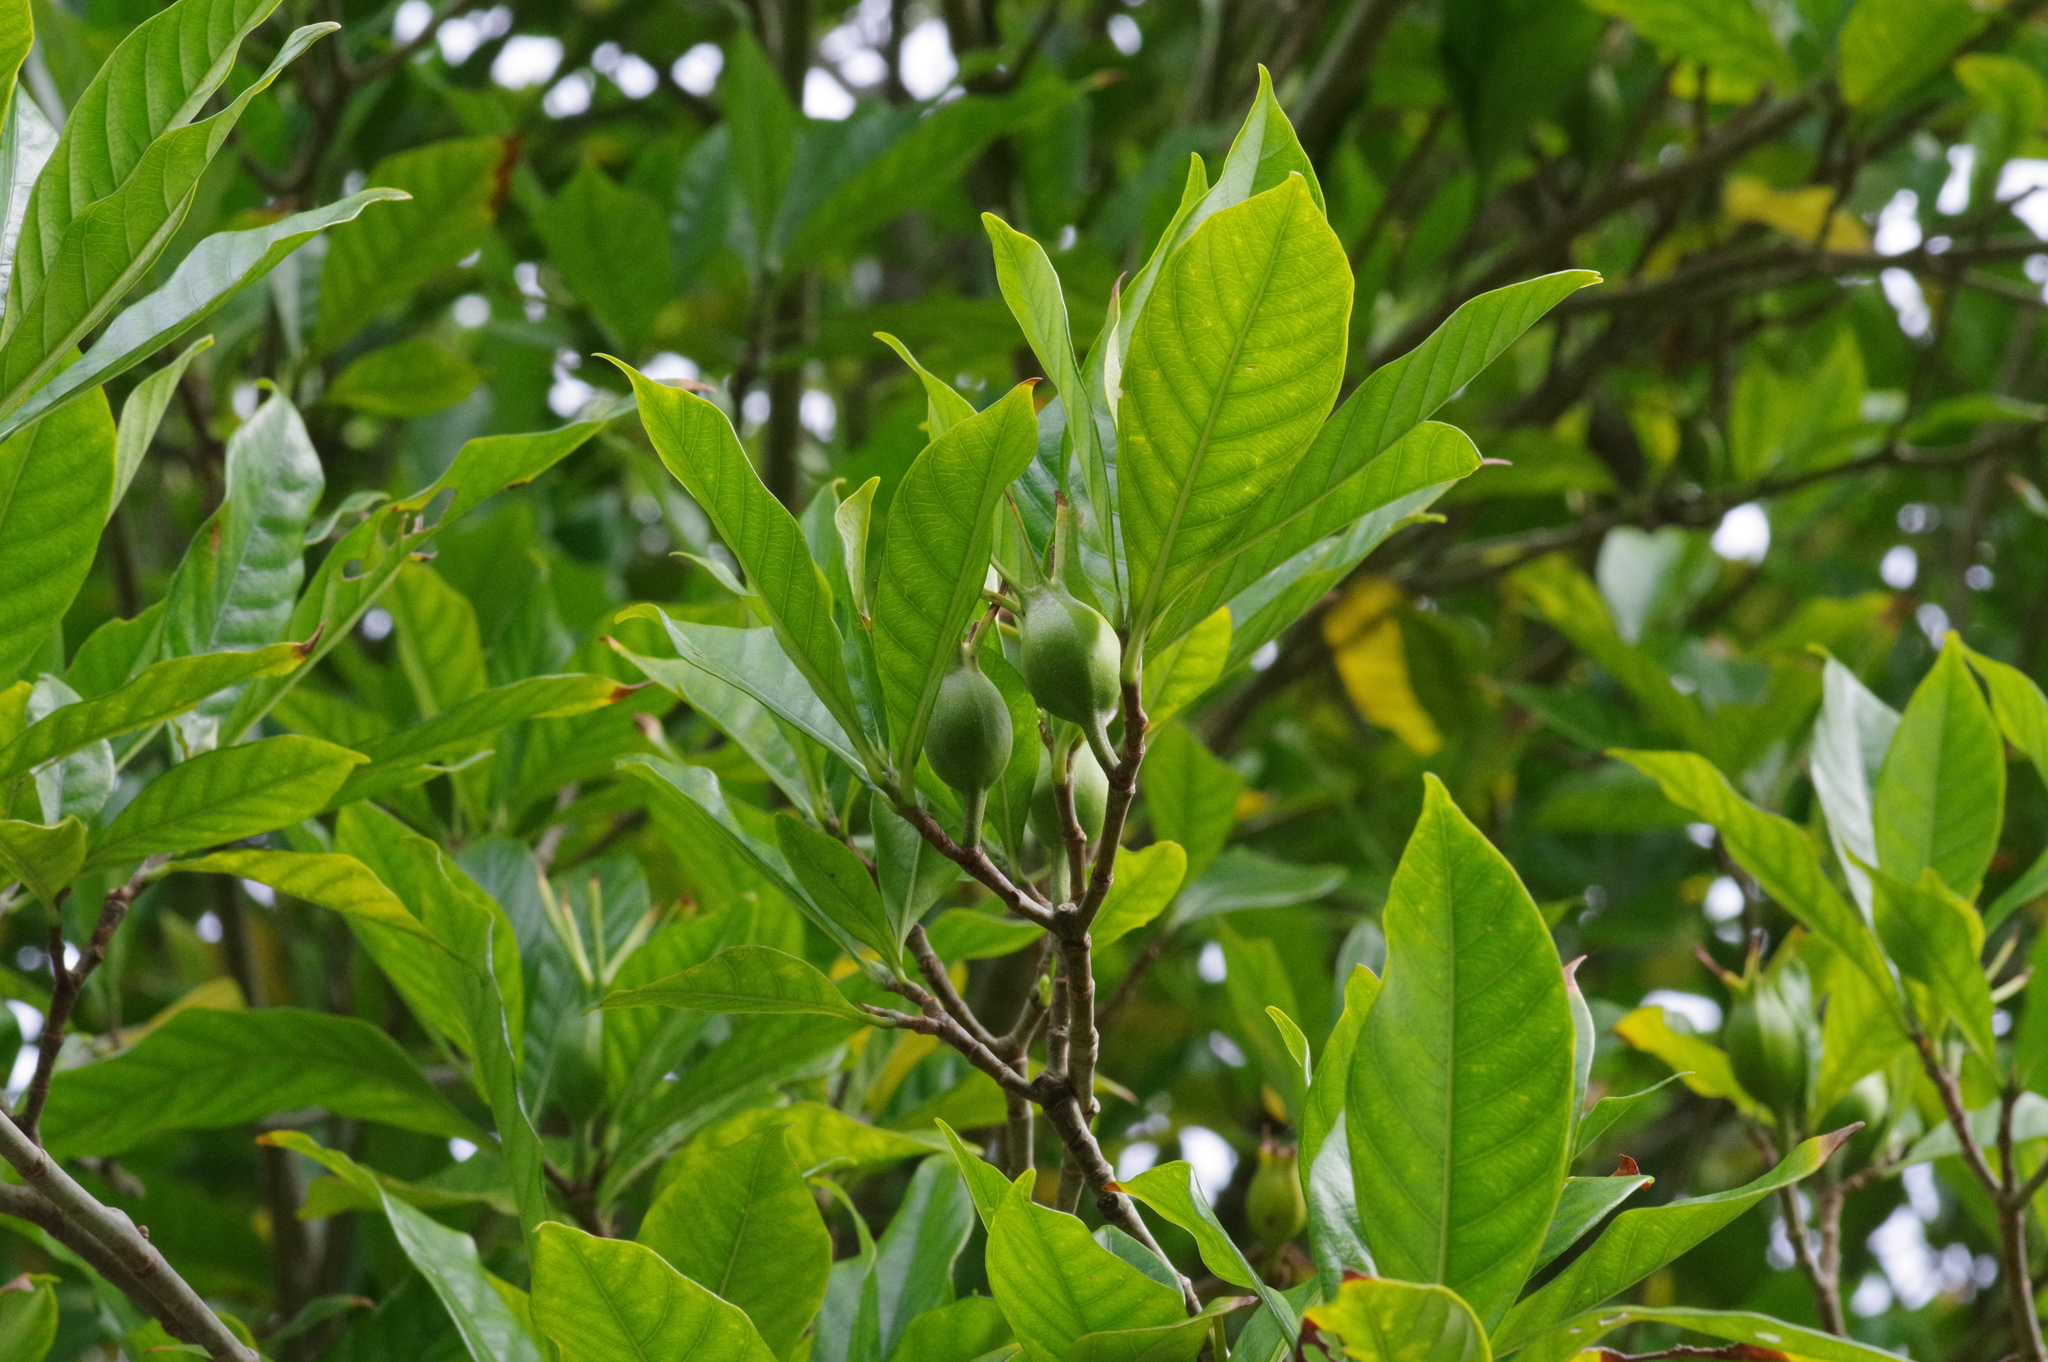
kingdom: Plantae
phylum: Tracheophyta
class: Magnoliopsida
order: Gentianales
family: Rubiaceae
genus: Gardenia
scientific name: Gardenia jasminoides
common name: Cape-jasmine
